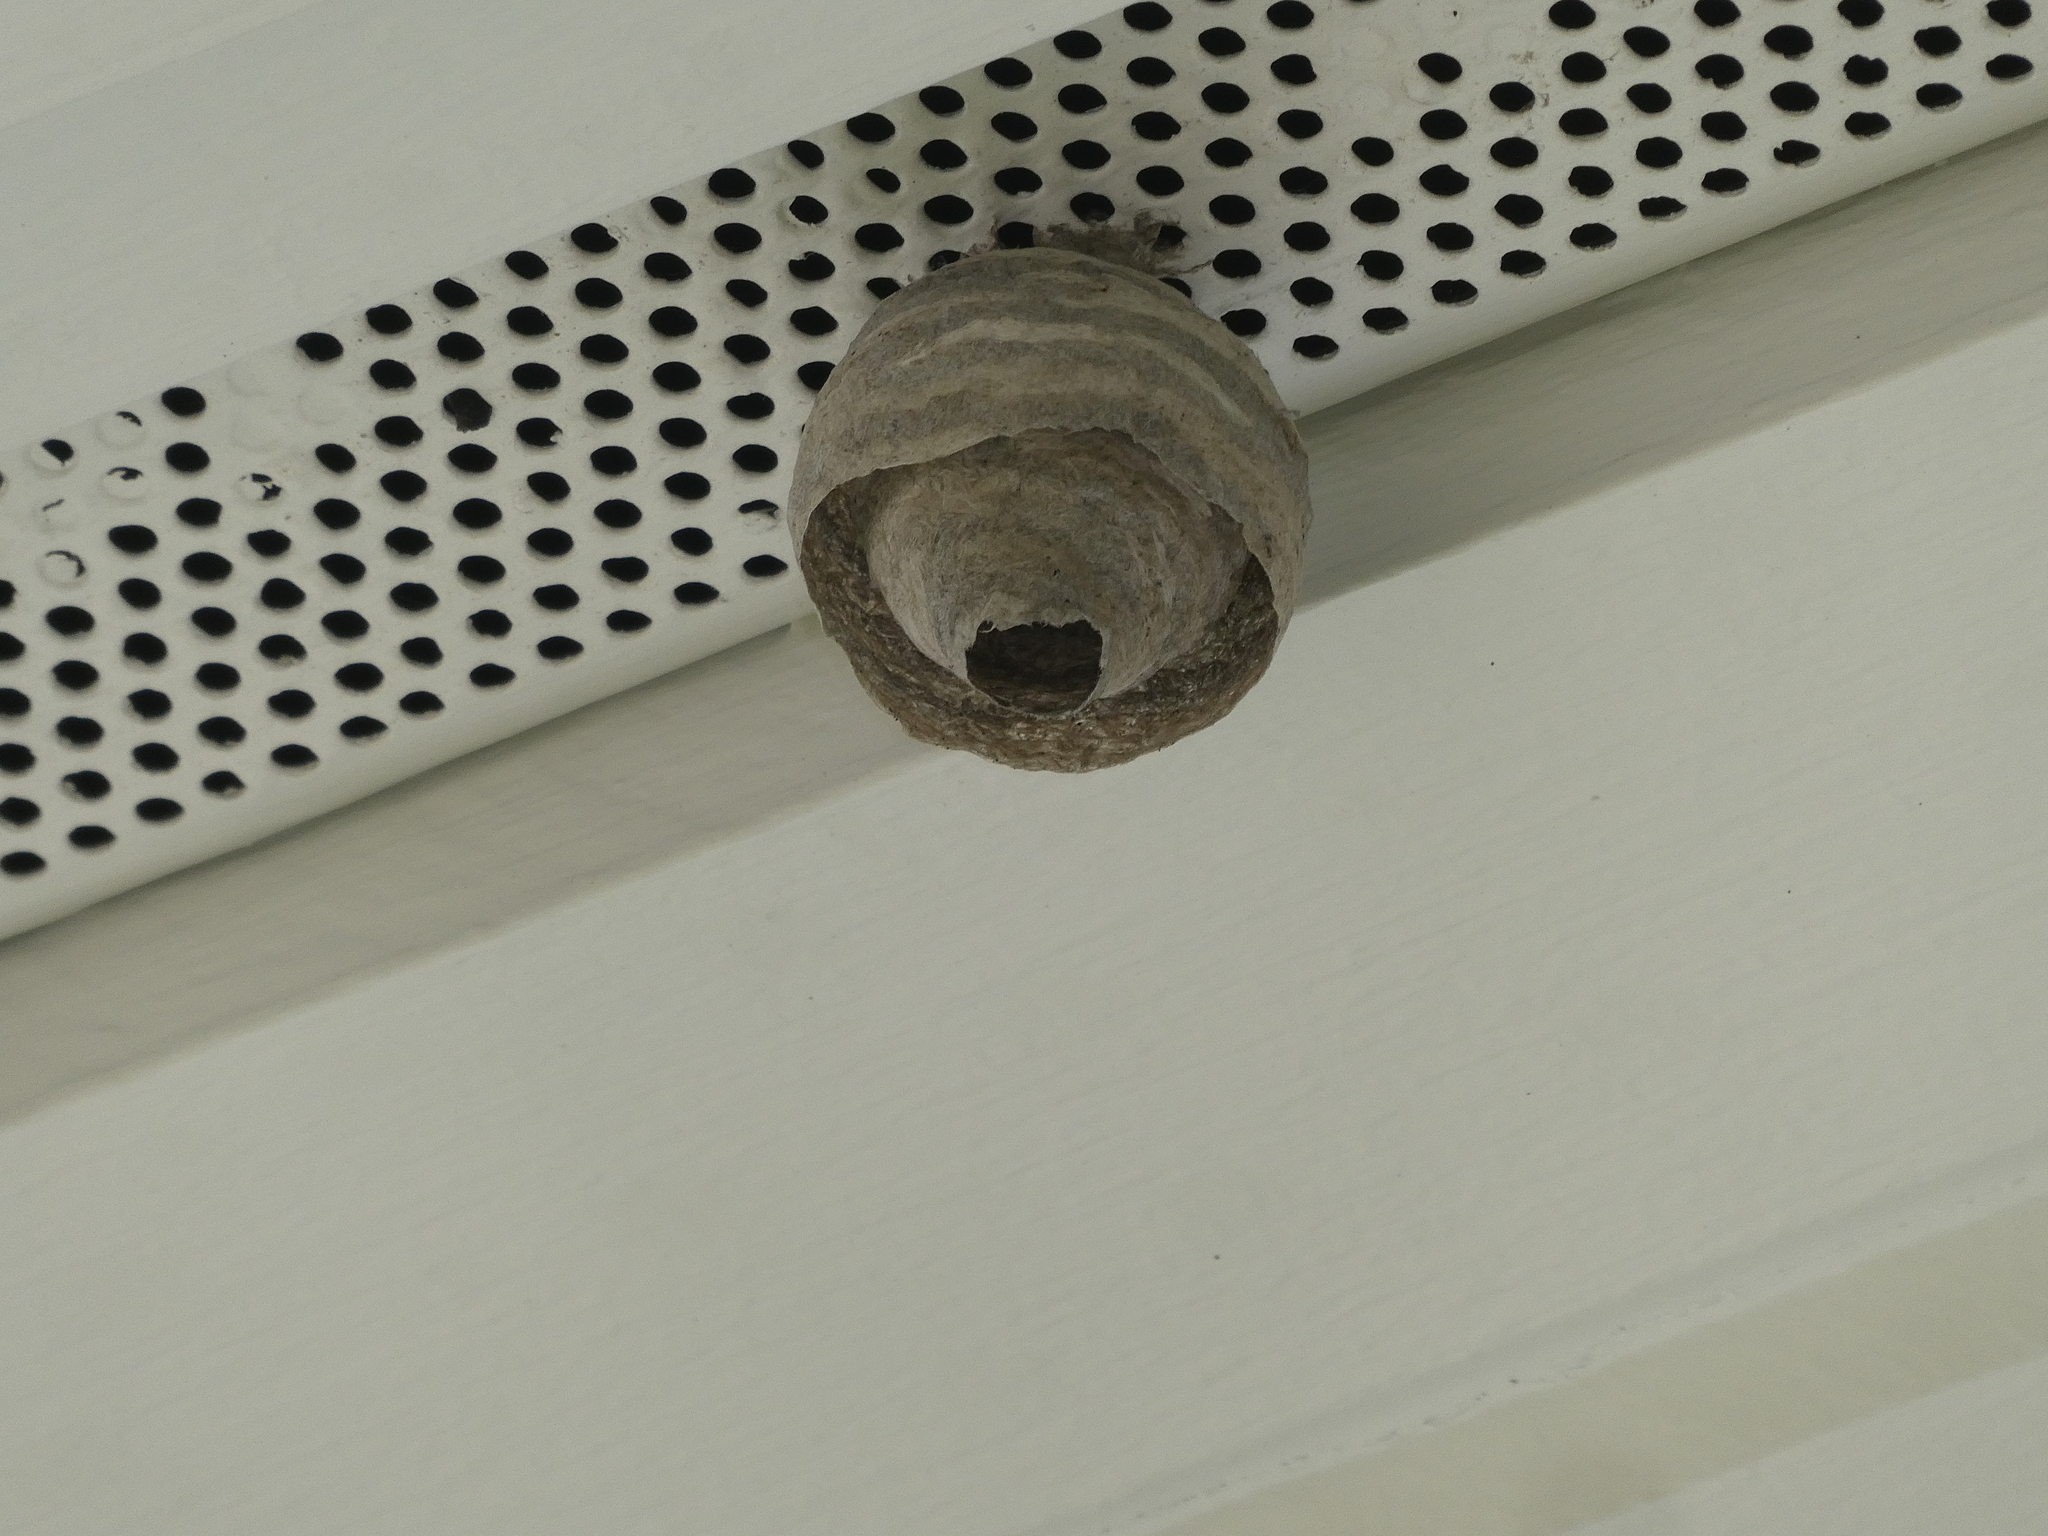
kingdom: Animalia
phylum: Arthropoda
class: Insecta
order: Hymenoptera
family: Vespidae
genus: Dolichovespula
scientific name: Dolichovespula
